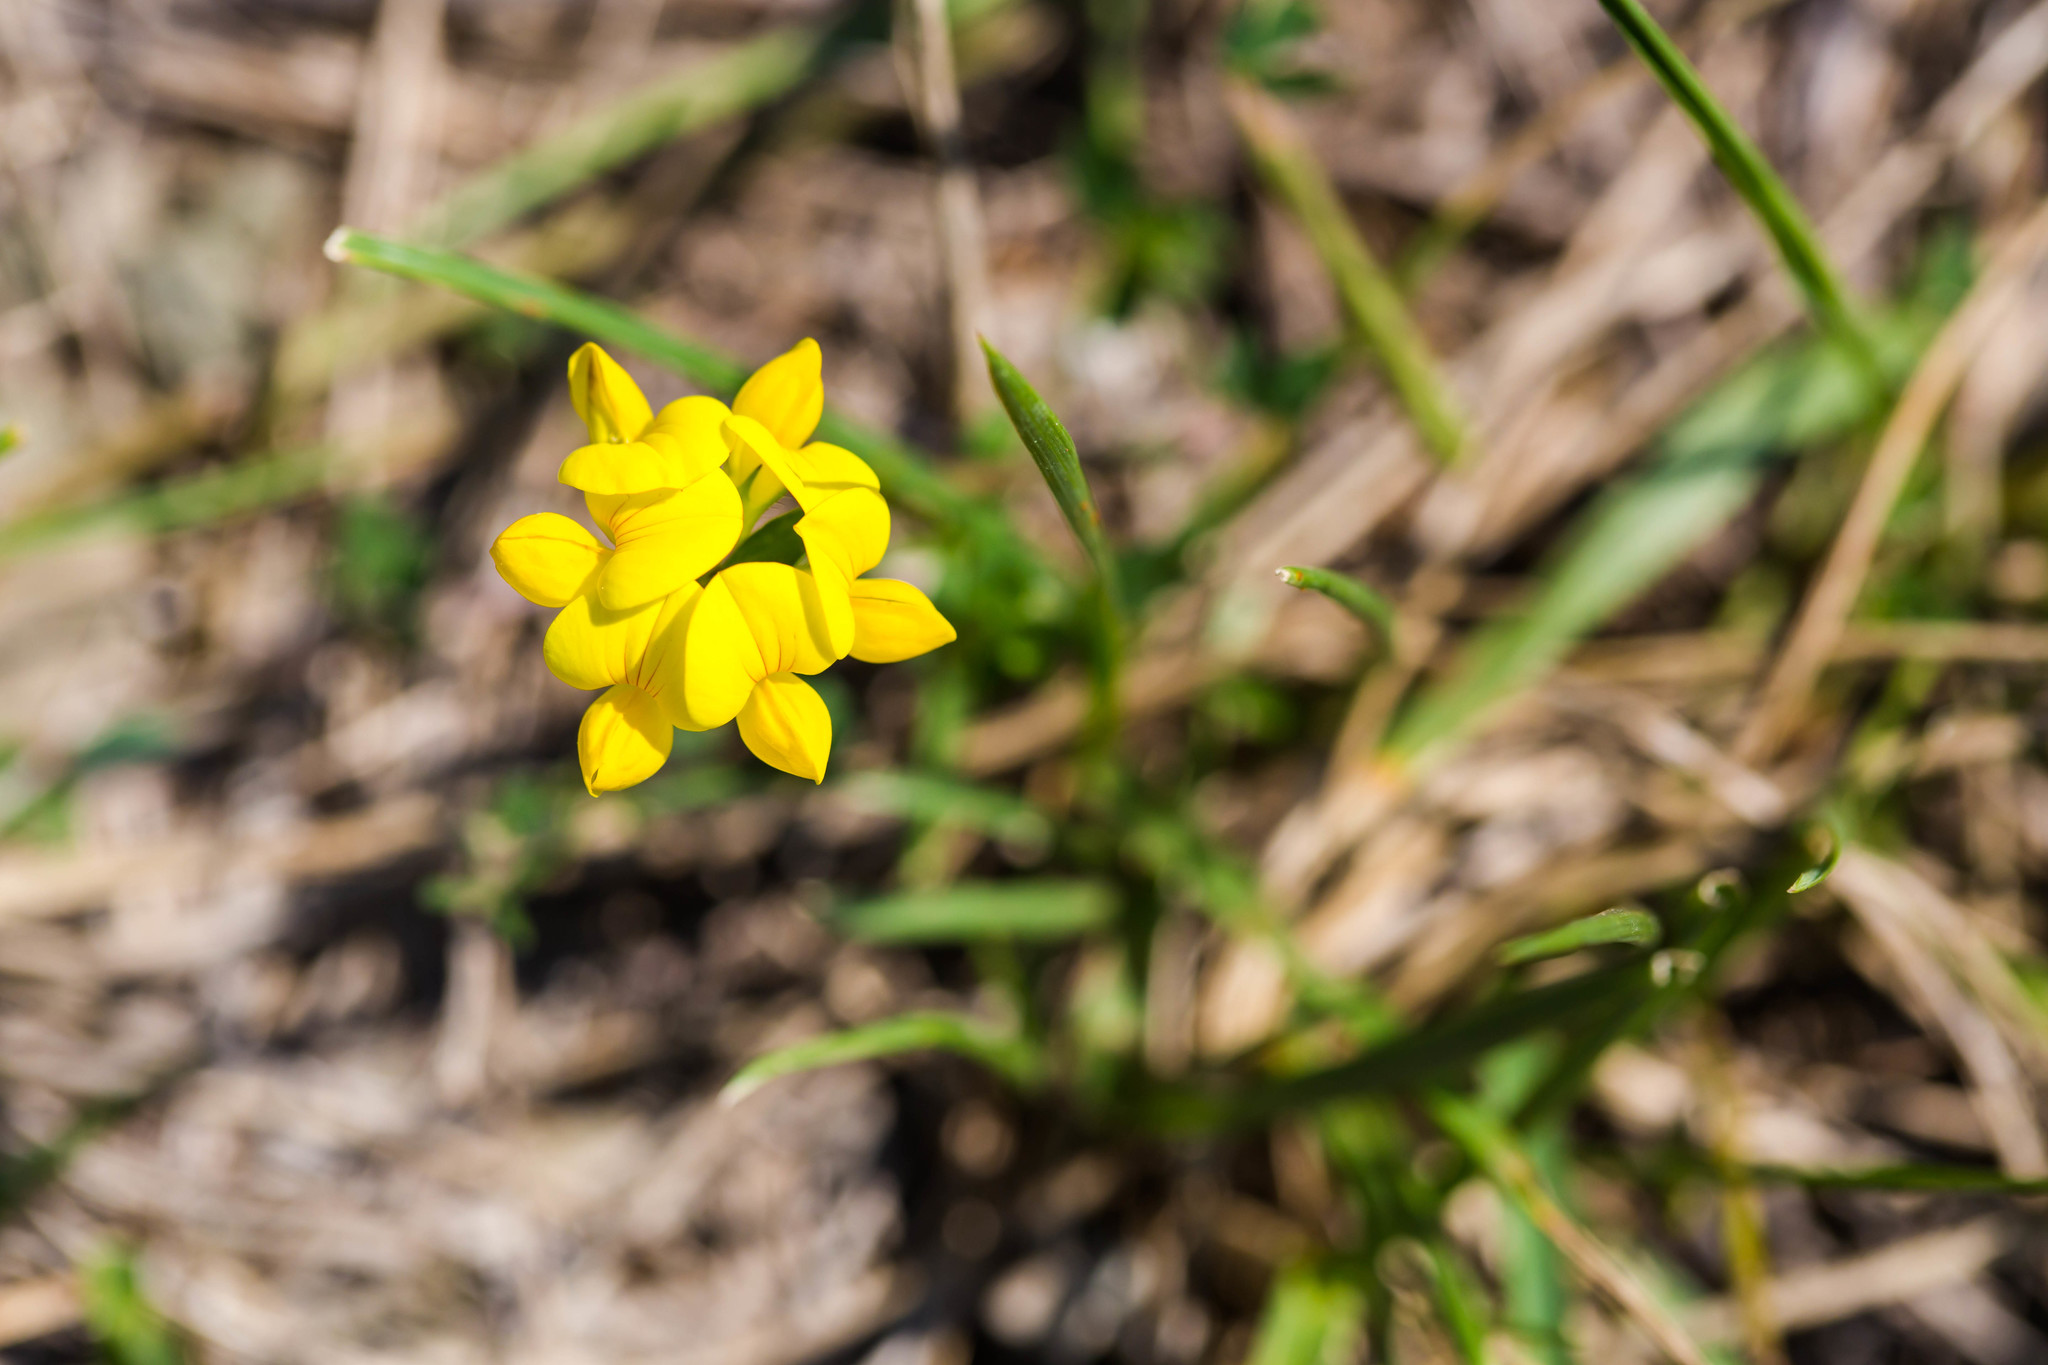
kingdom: Plantae
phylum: Tracheophyta
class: Magnoliopsida
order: Fabales
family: Fabaceae
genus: Lotus
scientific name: Lotus corniculatus
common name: Common bird's-foot-trefoil
